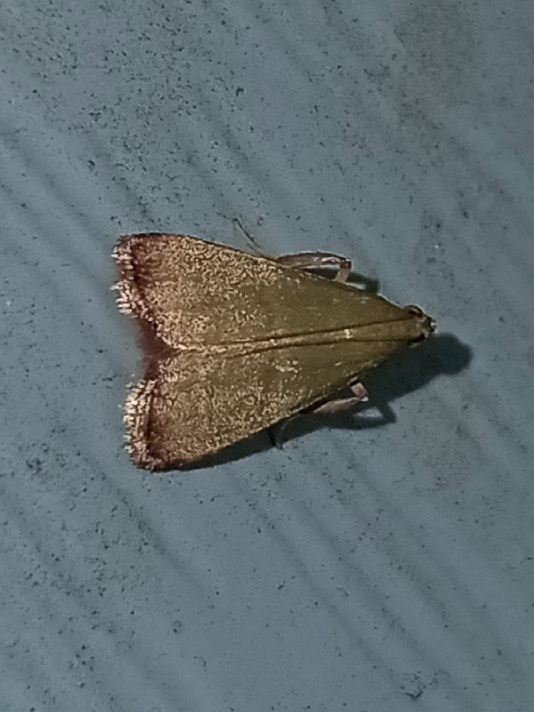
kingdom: Animalia
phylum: Arthropoda
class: Insecta
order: Lepidoptera
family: Pyralidae
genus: Arta
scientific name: Arta olivalis
